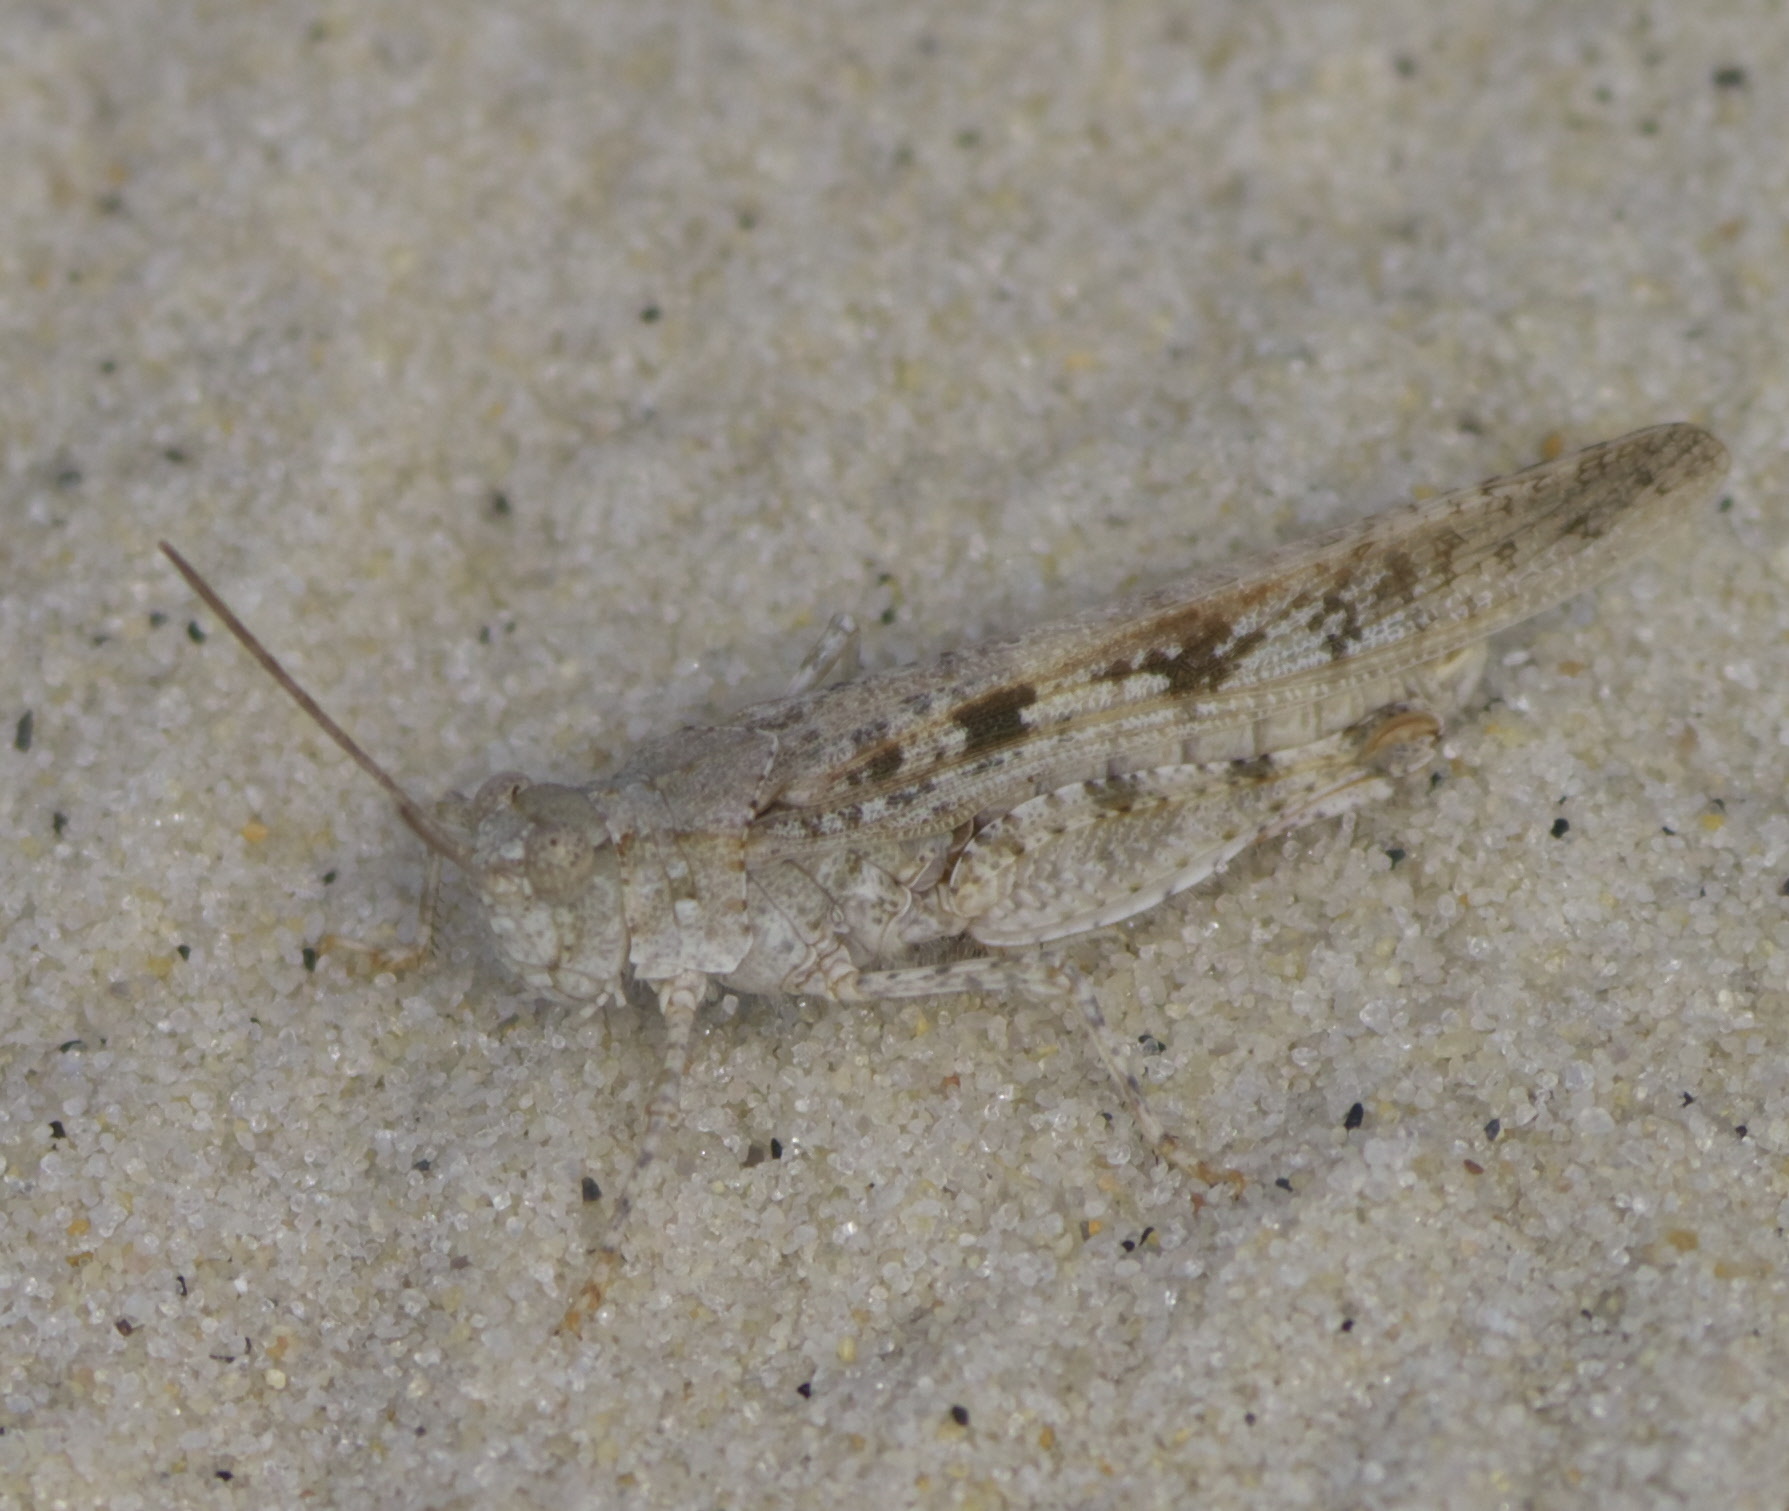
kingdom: Animalia
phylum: Arthropoda
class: Insecta
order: Orthoptera
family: Acrididae
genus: Trimerotropis
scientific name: Trimerotropis maritima
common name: Seaside locust
